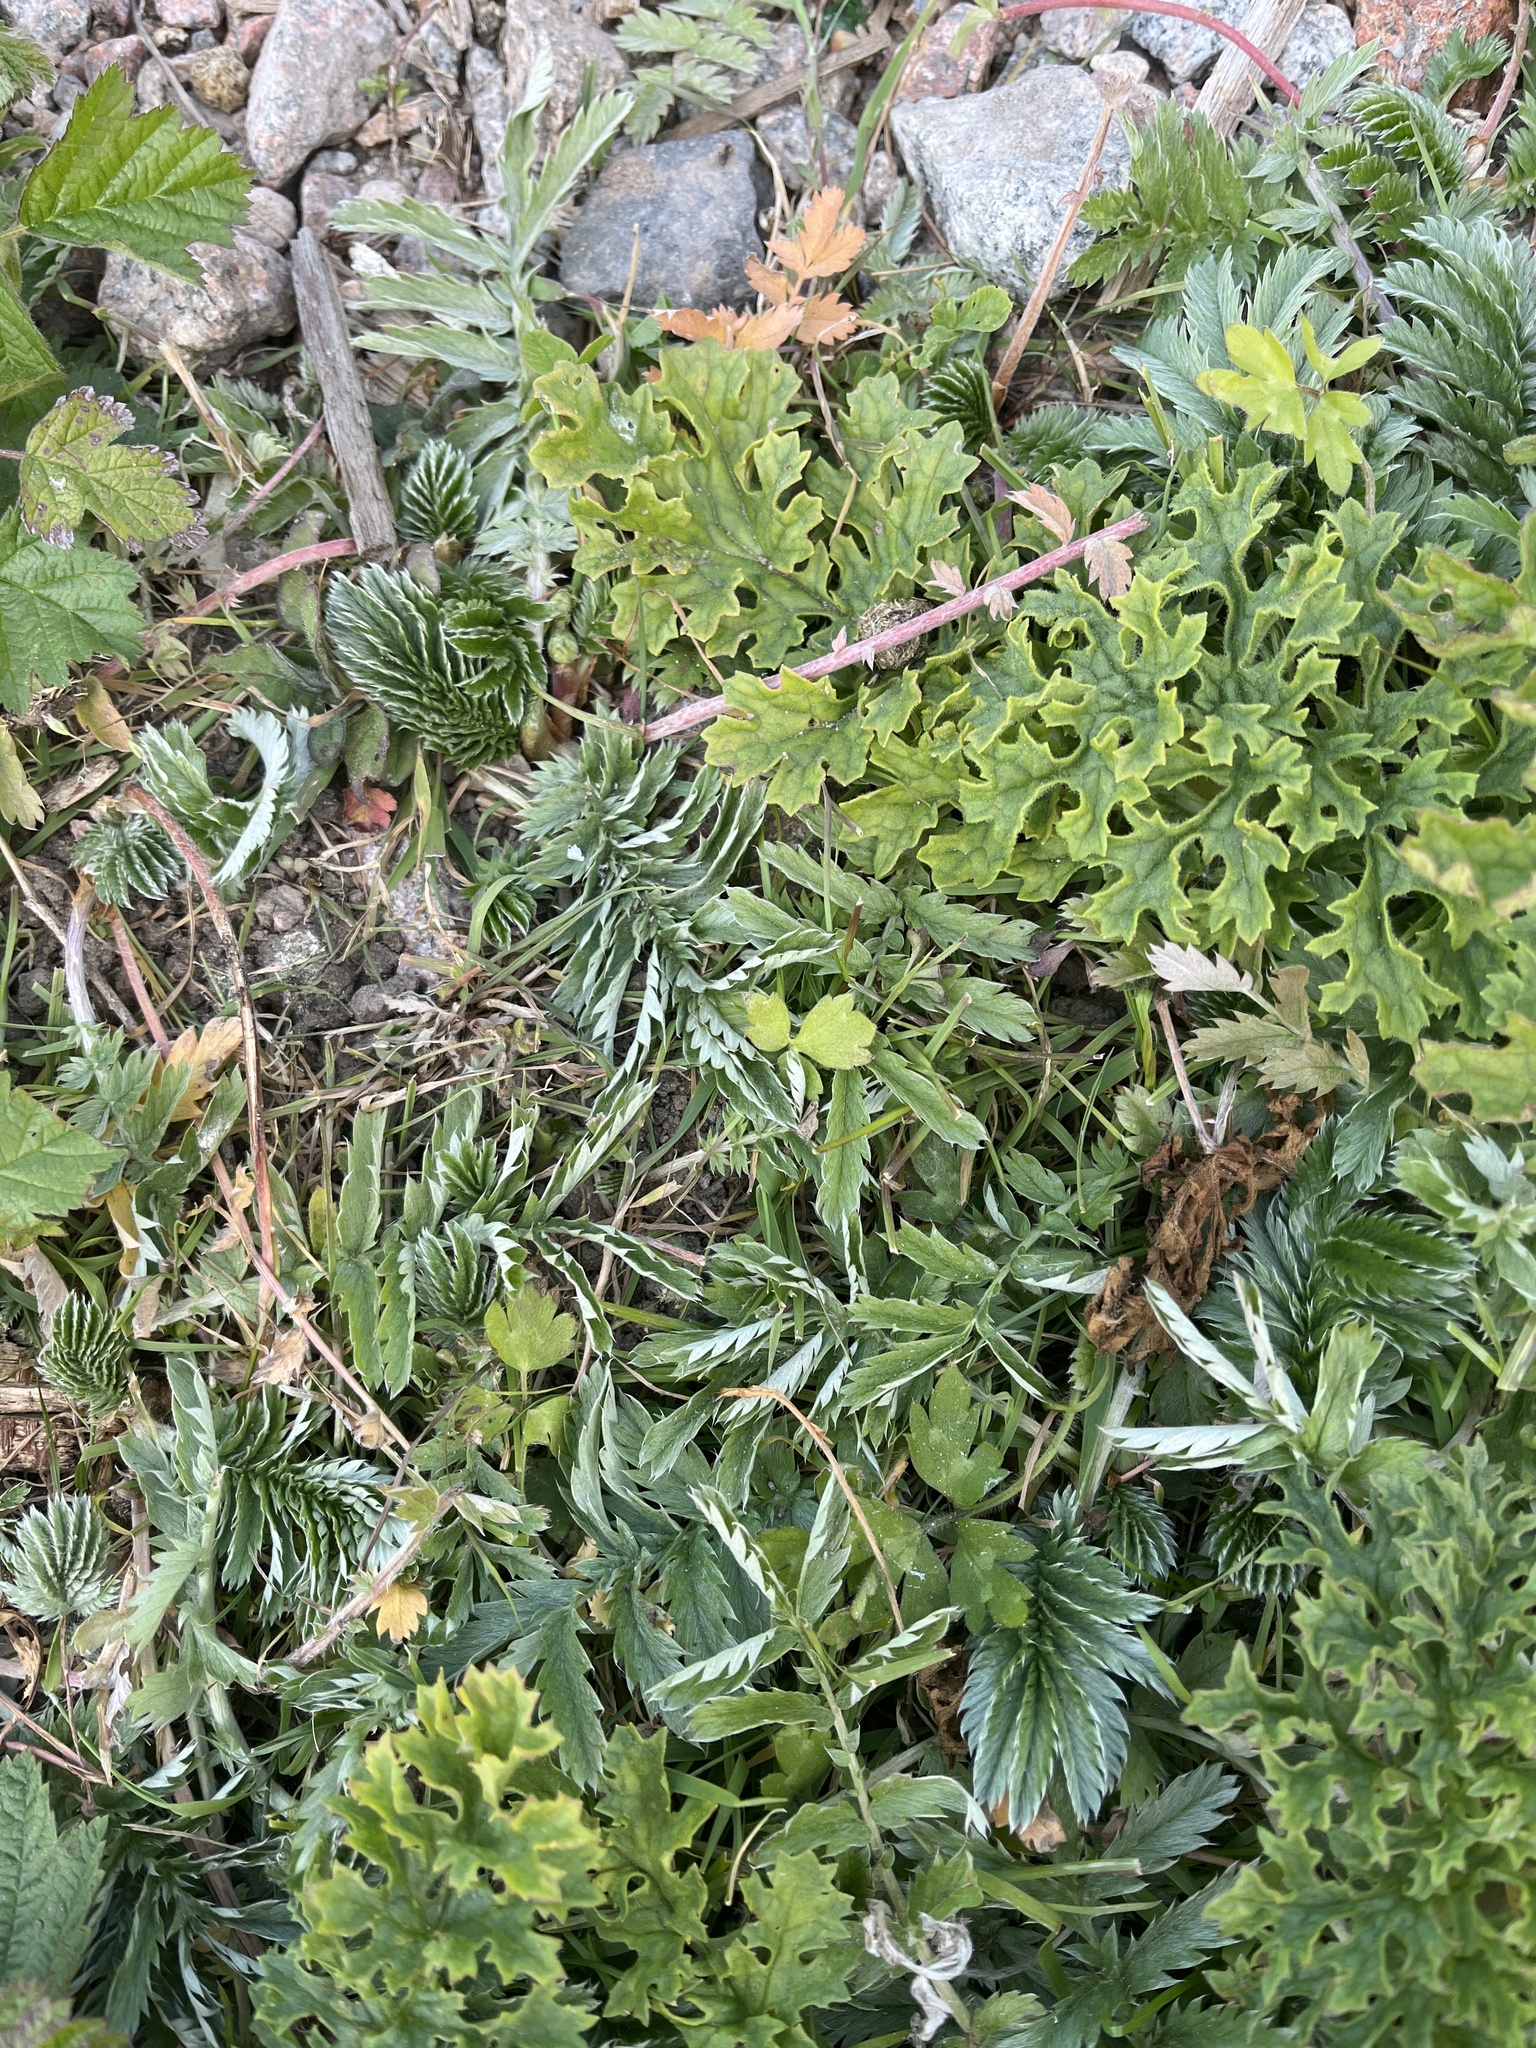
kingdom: Plantae
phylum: Tracheophyta
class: Magnoliopsida
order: Rosales
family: Rosaceae
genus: Argentina
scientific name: Argentina anserina
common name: Common silverweed
